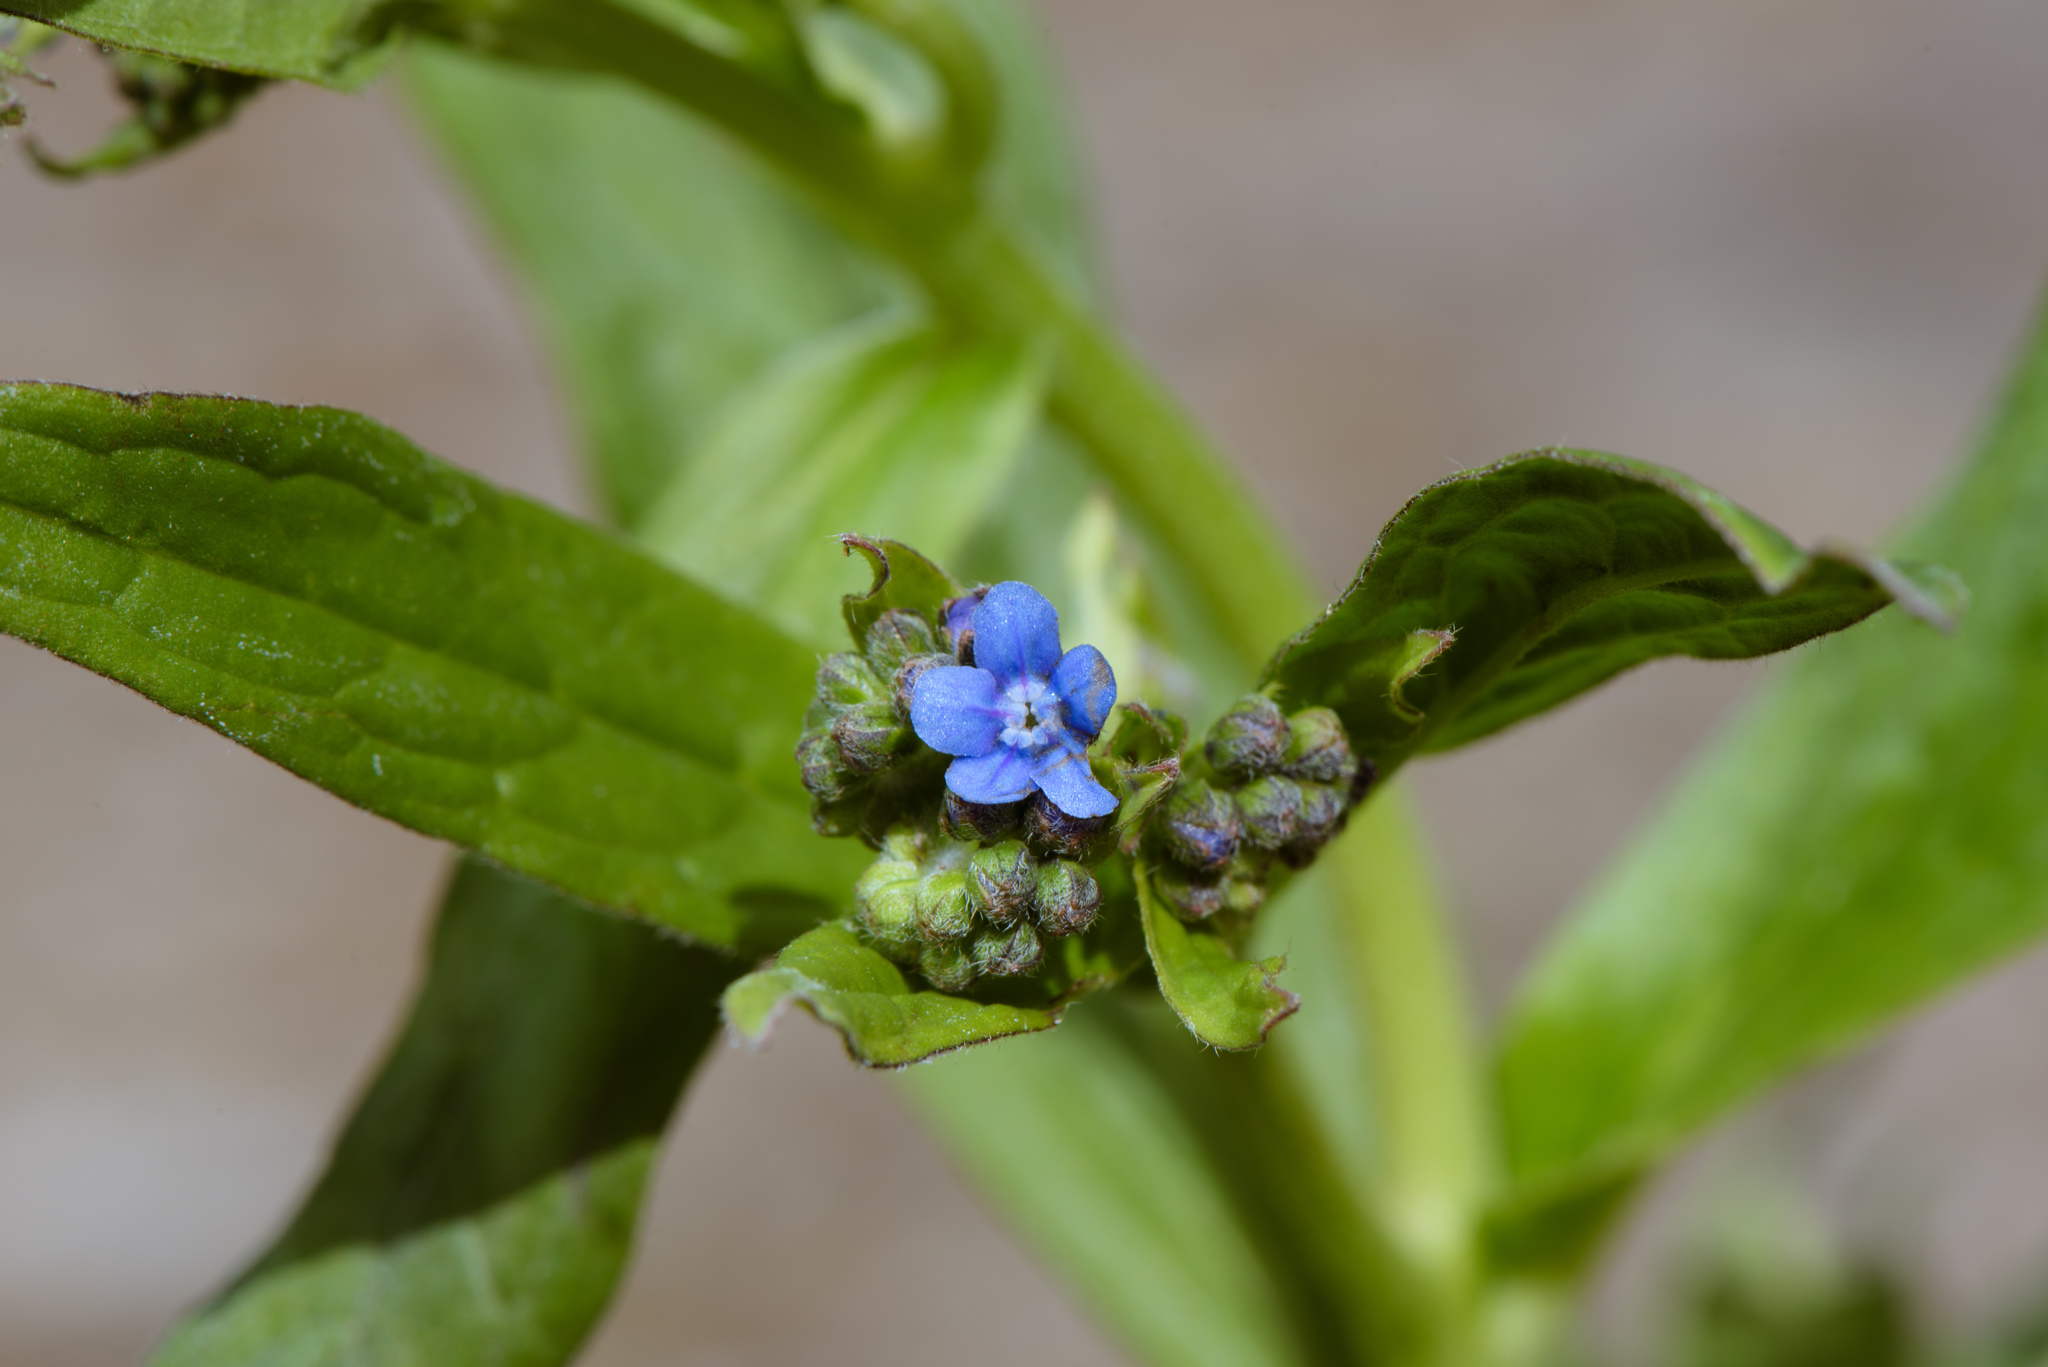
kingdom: Plantae
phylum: Tracheophyta
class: Magnoliopsida
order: Boraginales
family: Boraginaceae
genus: Cynoglossum
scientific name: Cynoglossum zeylanicum
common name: Ceylon hound's tongue
